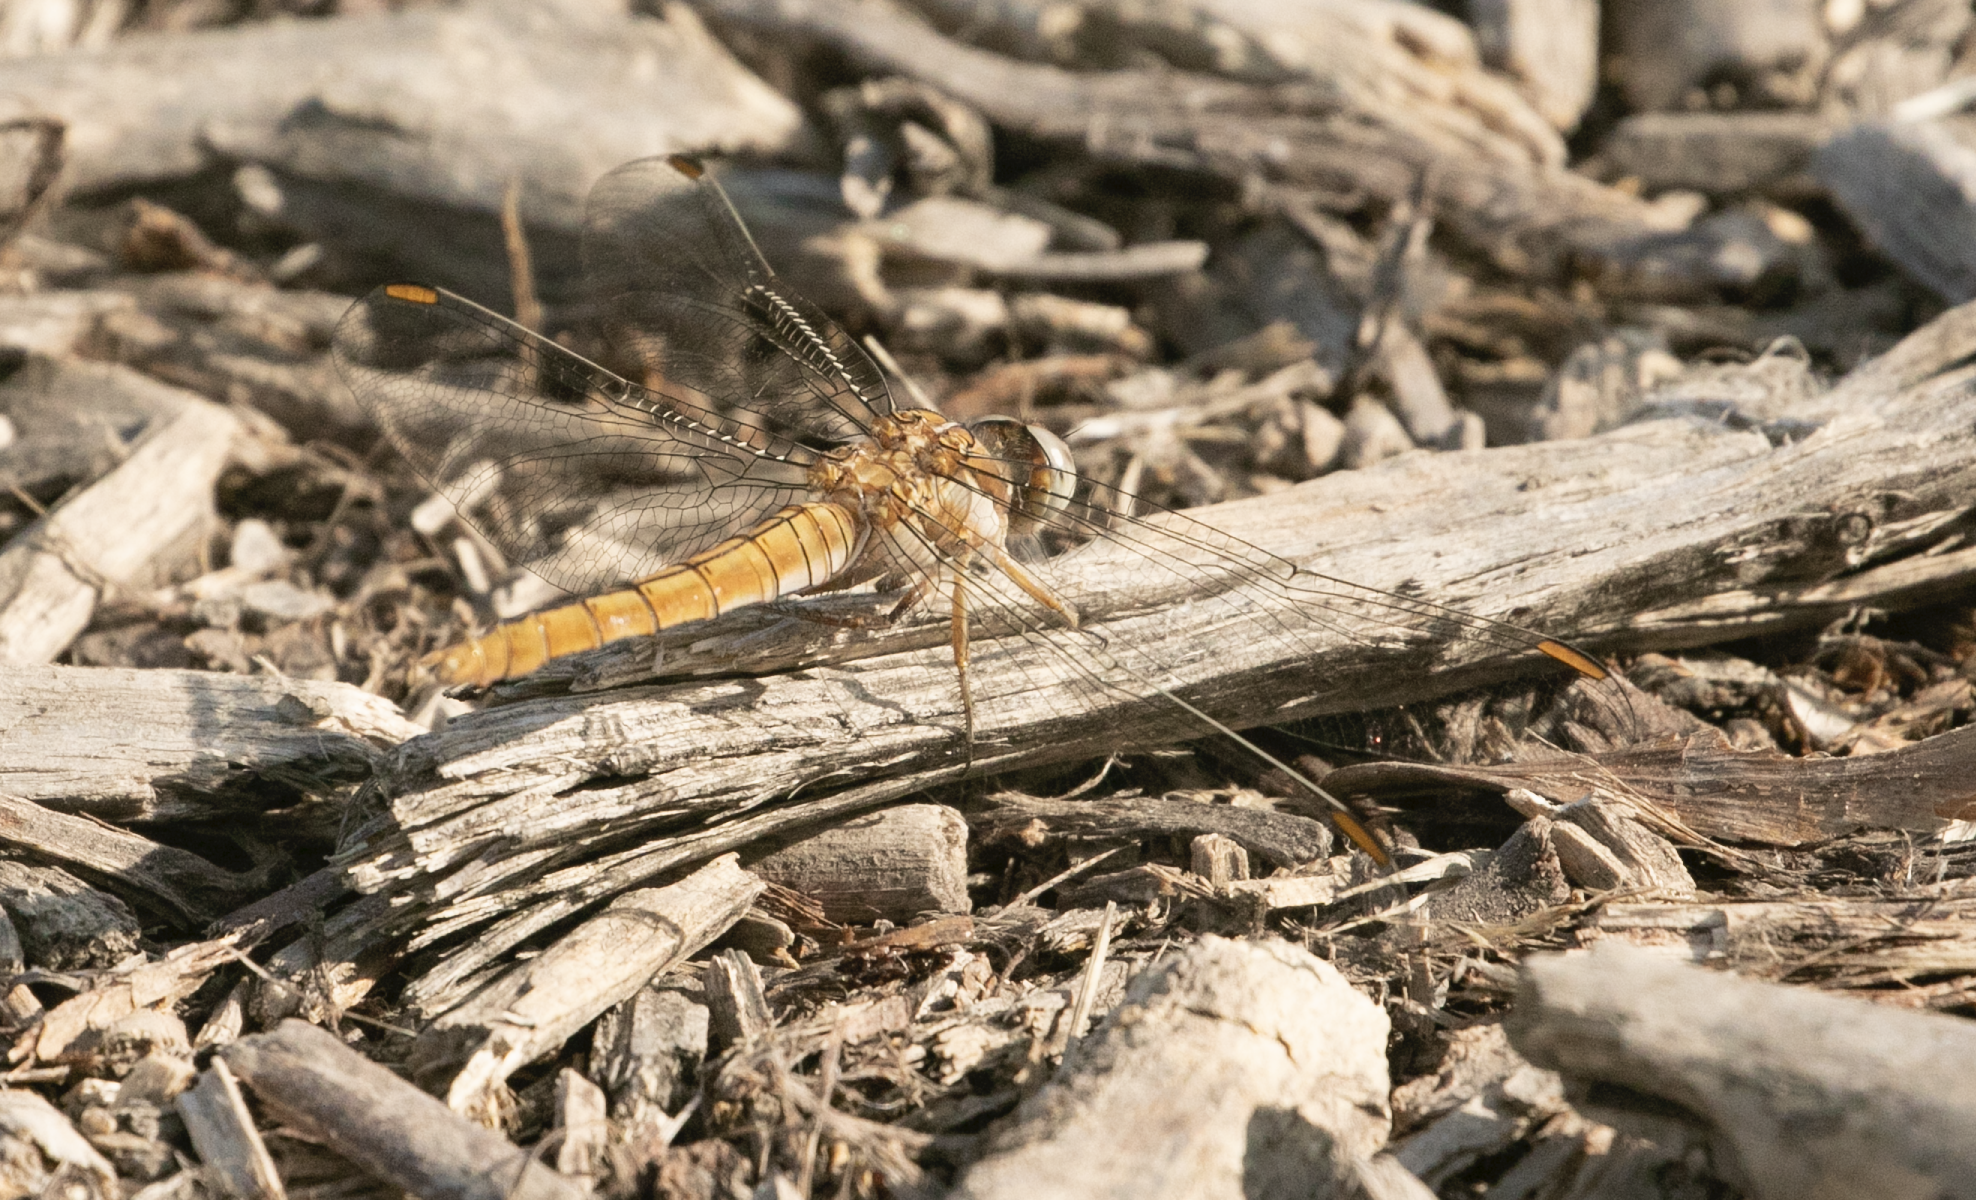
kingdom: Animalia
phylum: Arthropoda
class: Insecta
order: Odonata
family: Libellulidae
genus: Orthetrum
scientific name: Orthetrum brunneum
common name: Southern skimmer
